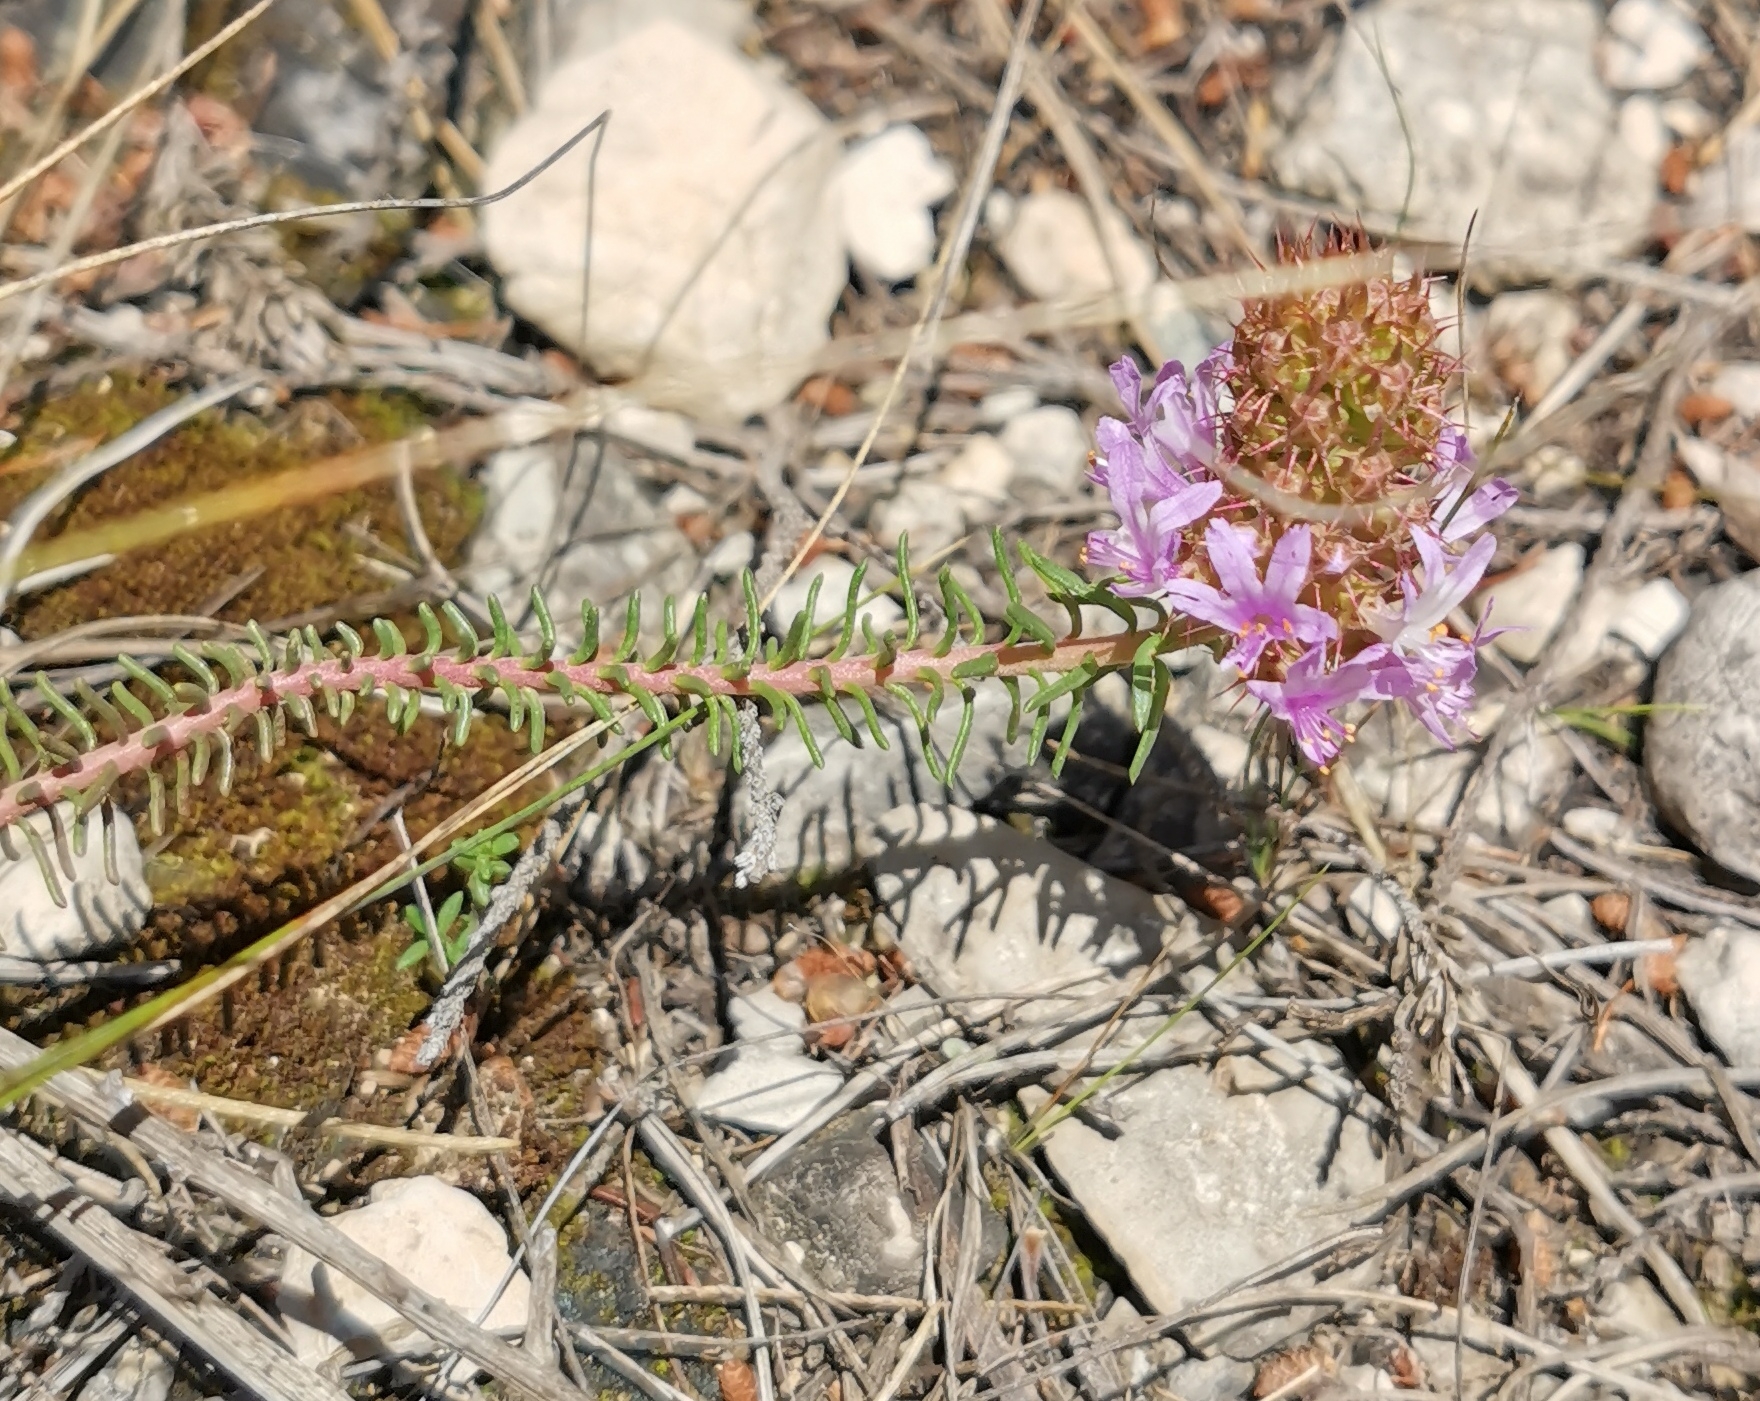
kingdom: Plantae
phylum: Tracheophyta
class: Magnoliopsida
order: Ericales
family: Primulaceae
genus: Coris
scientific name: Coris monspeliensis
